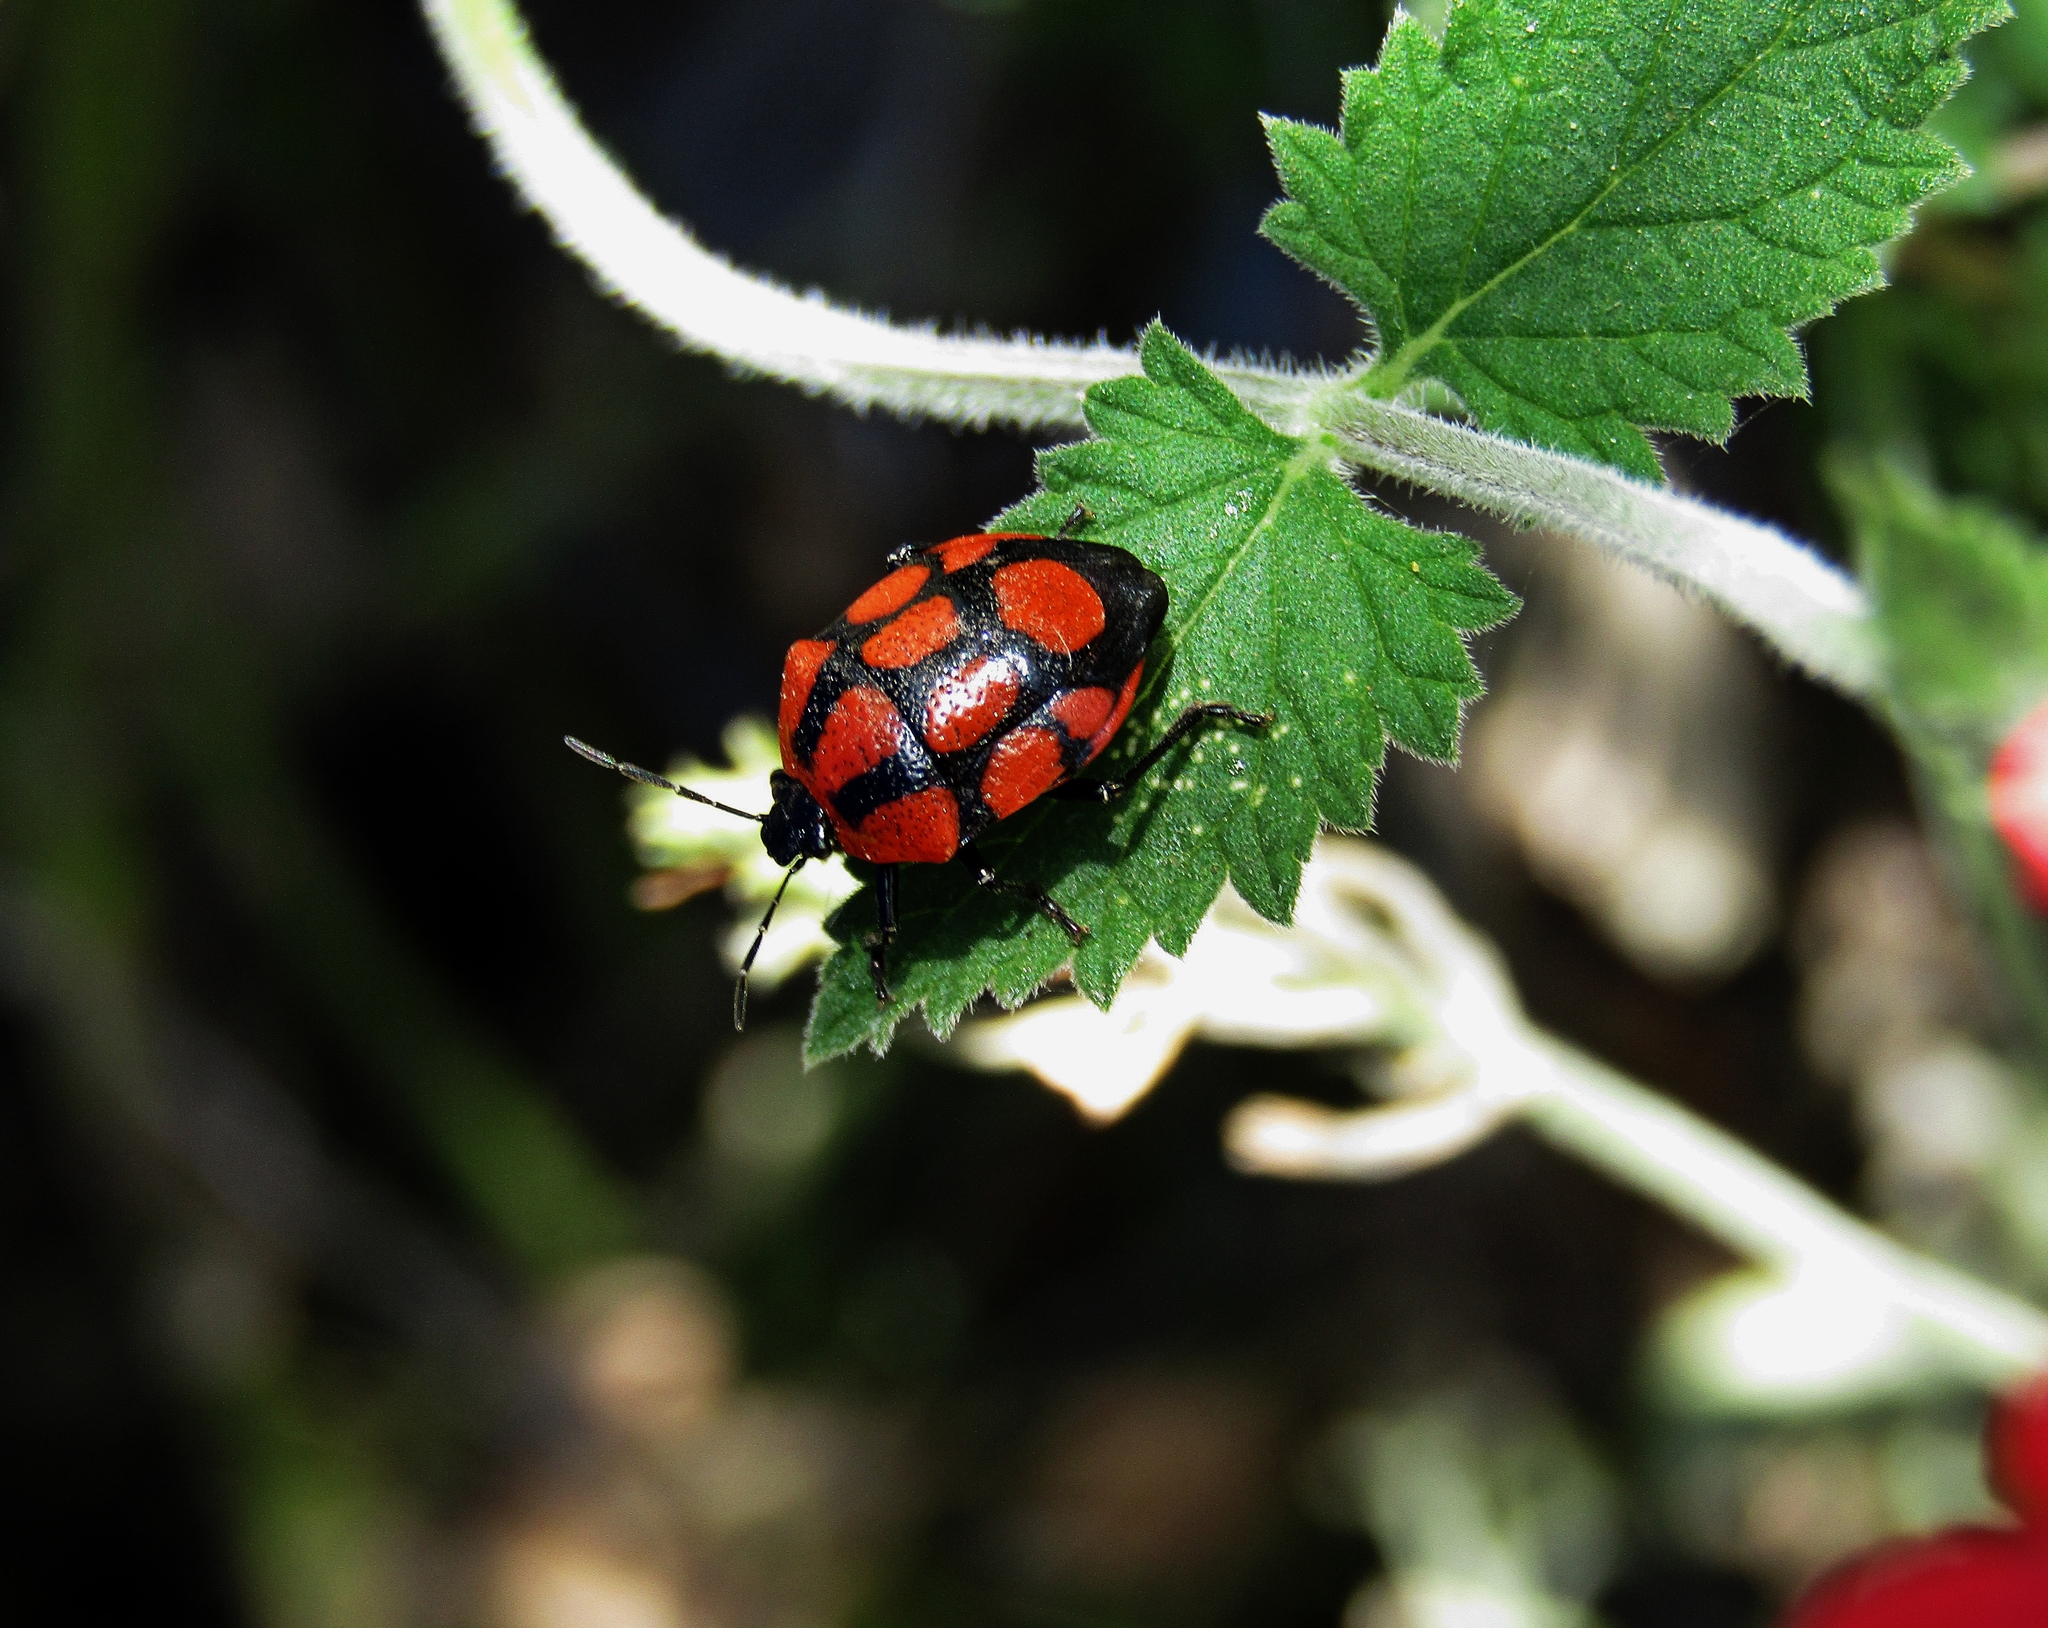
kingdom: Animalia
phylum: Arthropoda
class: Insecta
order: Hemiptera
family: Pentatomidae
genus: Stiretrus
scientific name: Stiretrus
